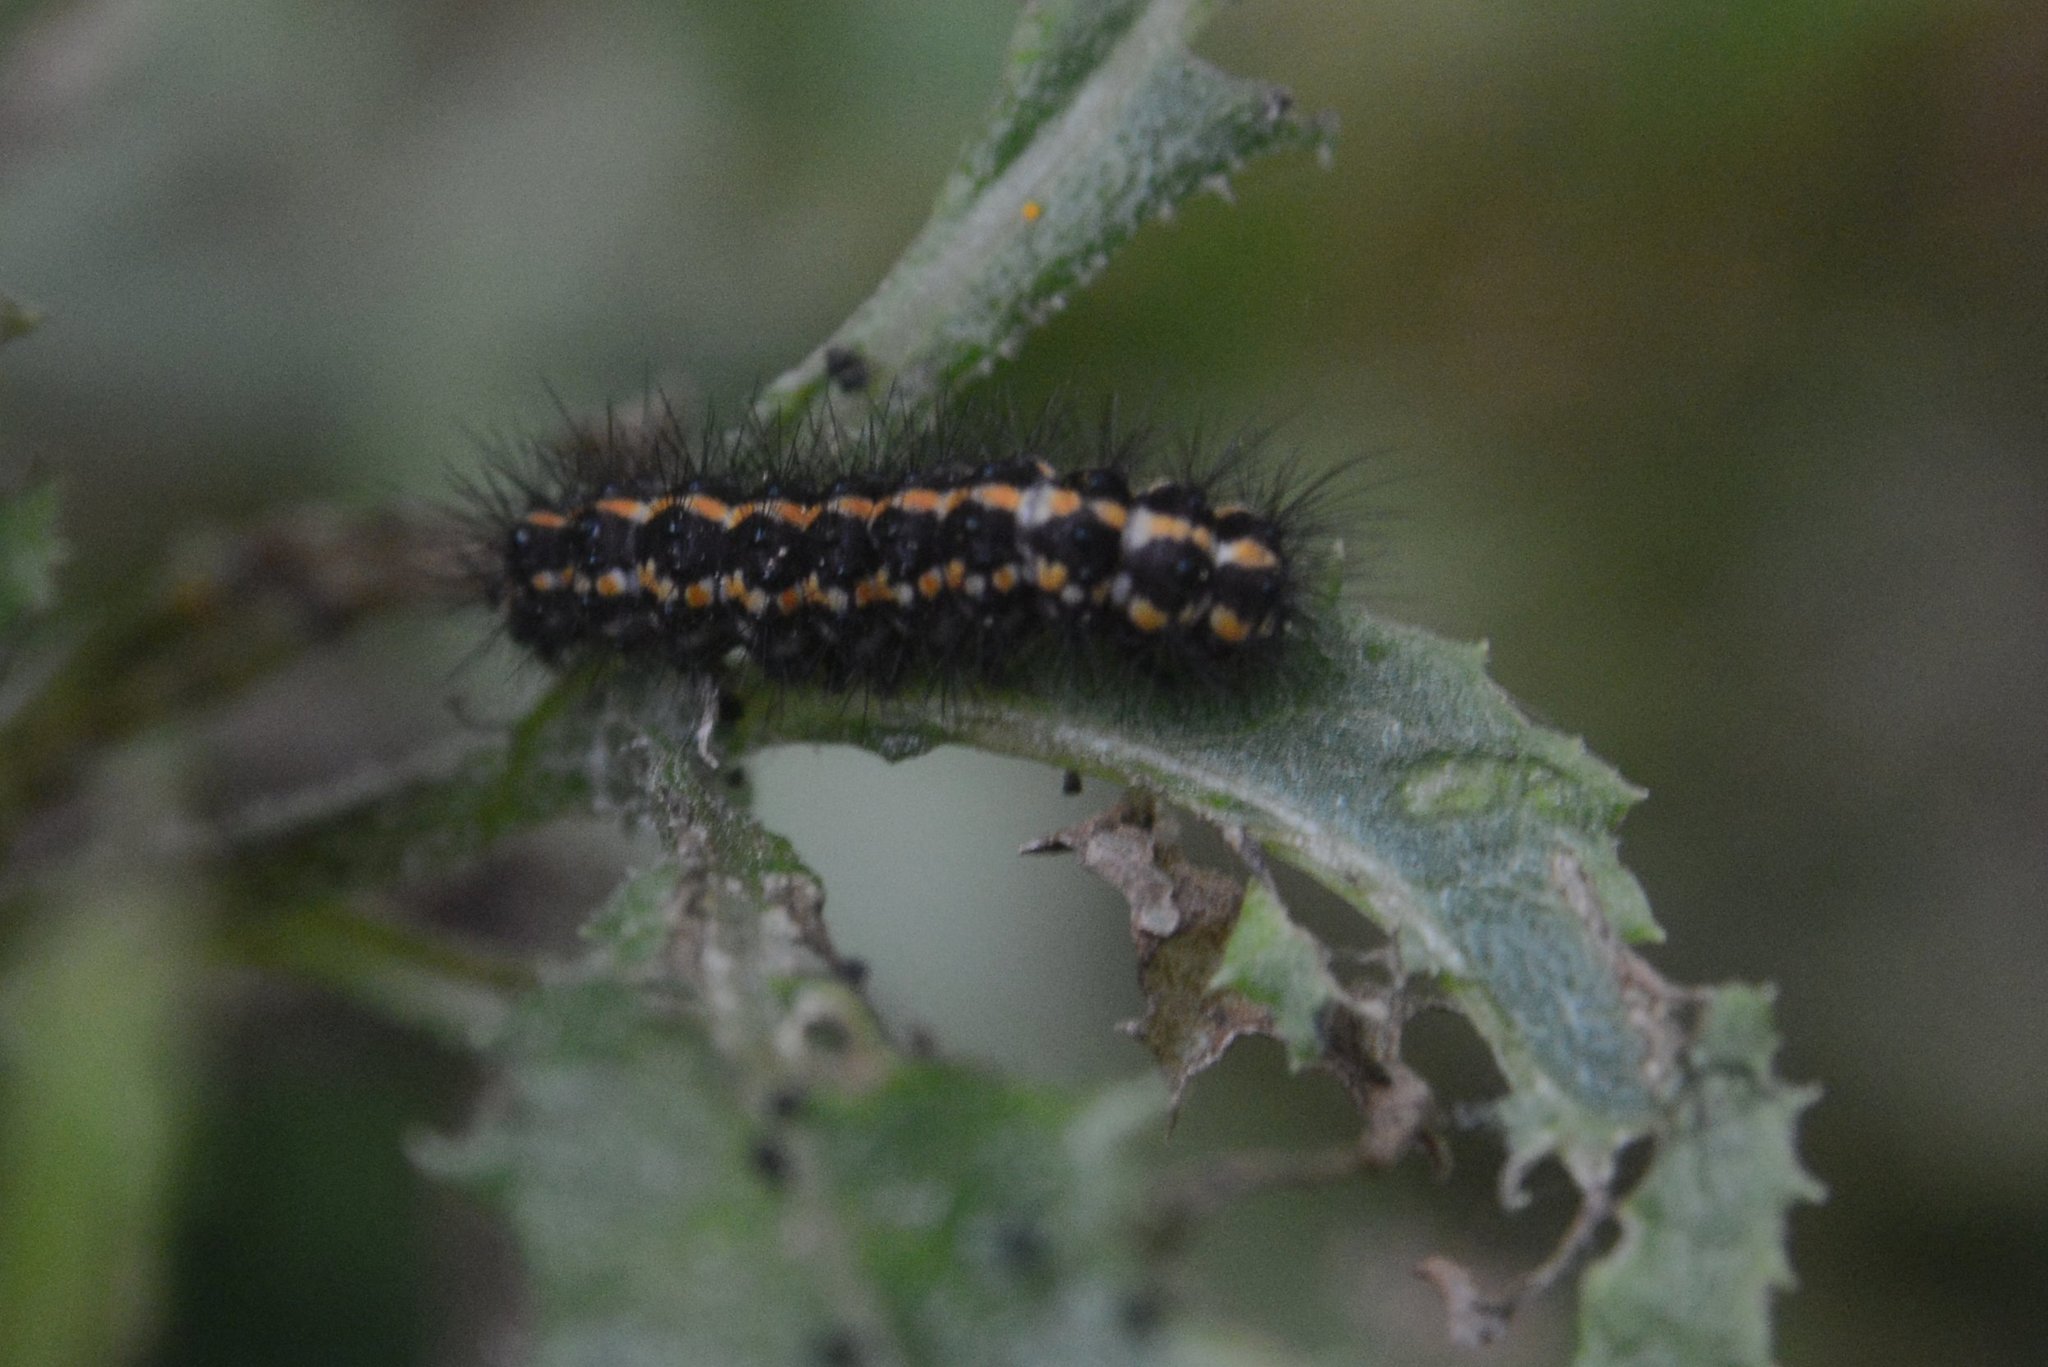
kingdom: Animalia
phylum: Arthropoda
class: Insecta
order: Lepidoptera
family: Erebidae
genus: Nyctemera
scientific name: Nyctemera annulatum
